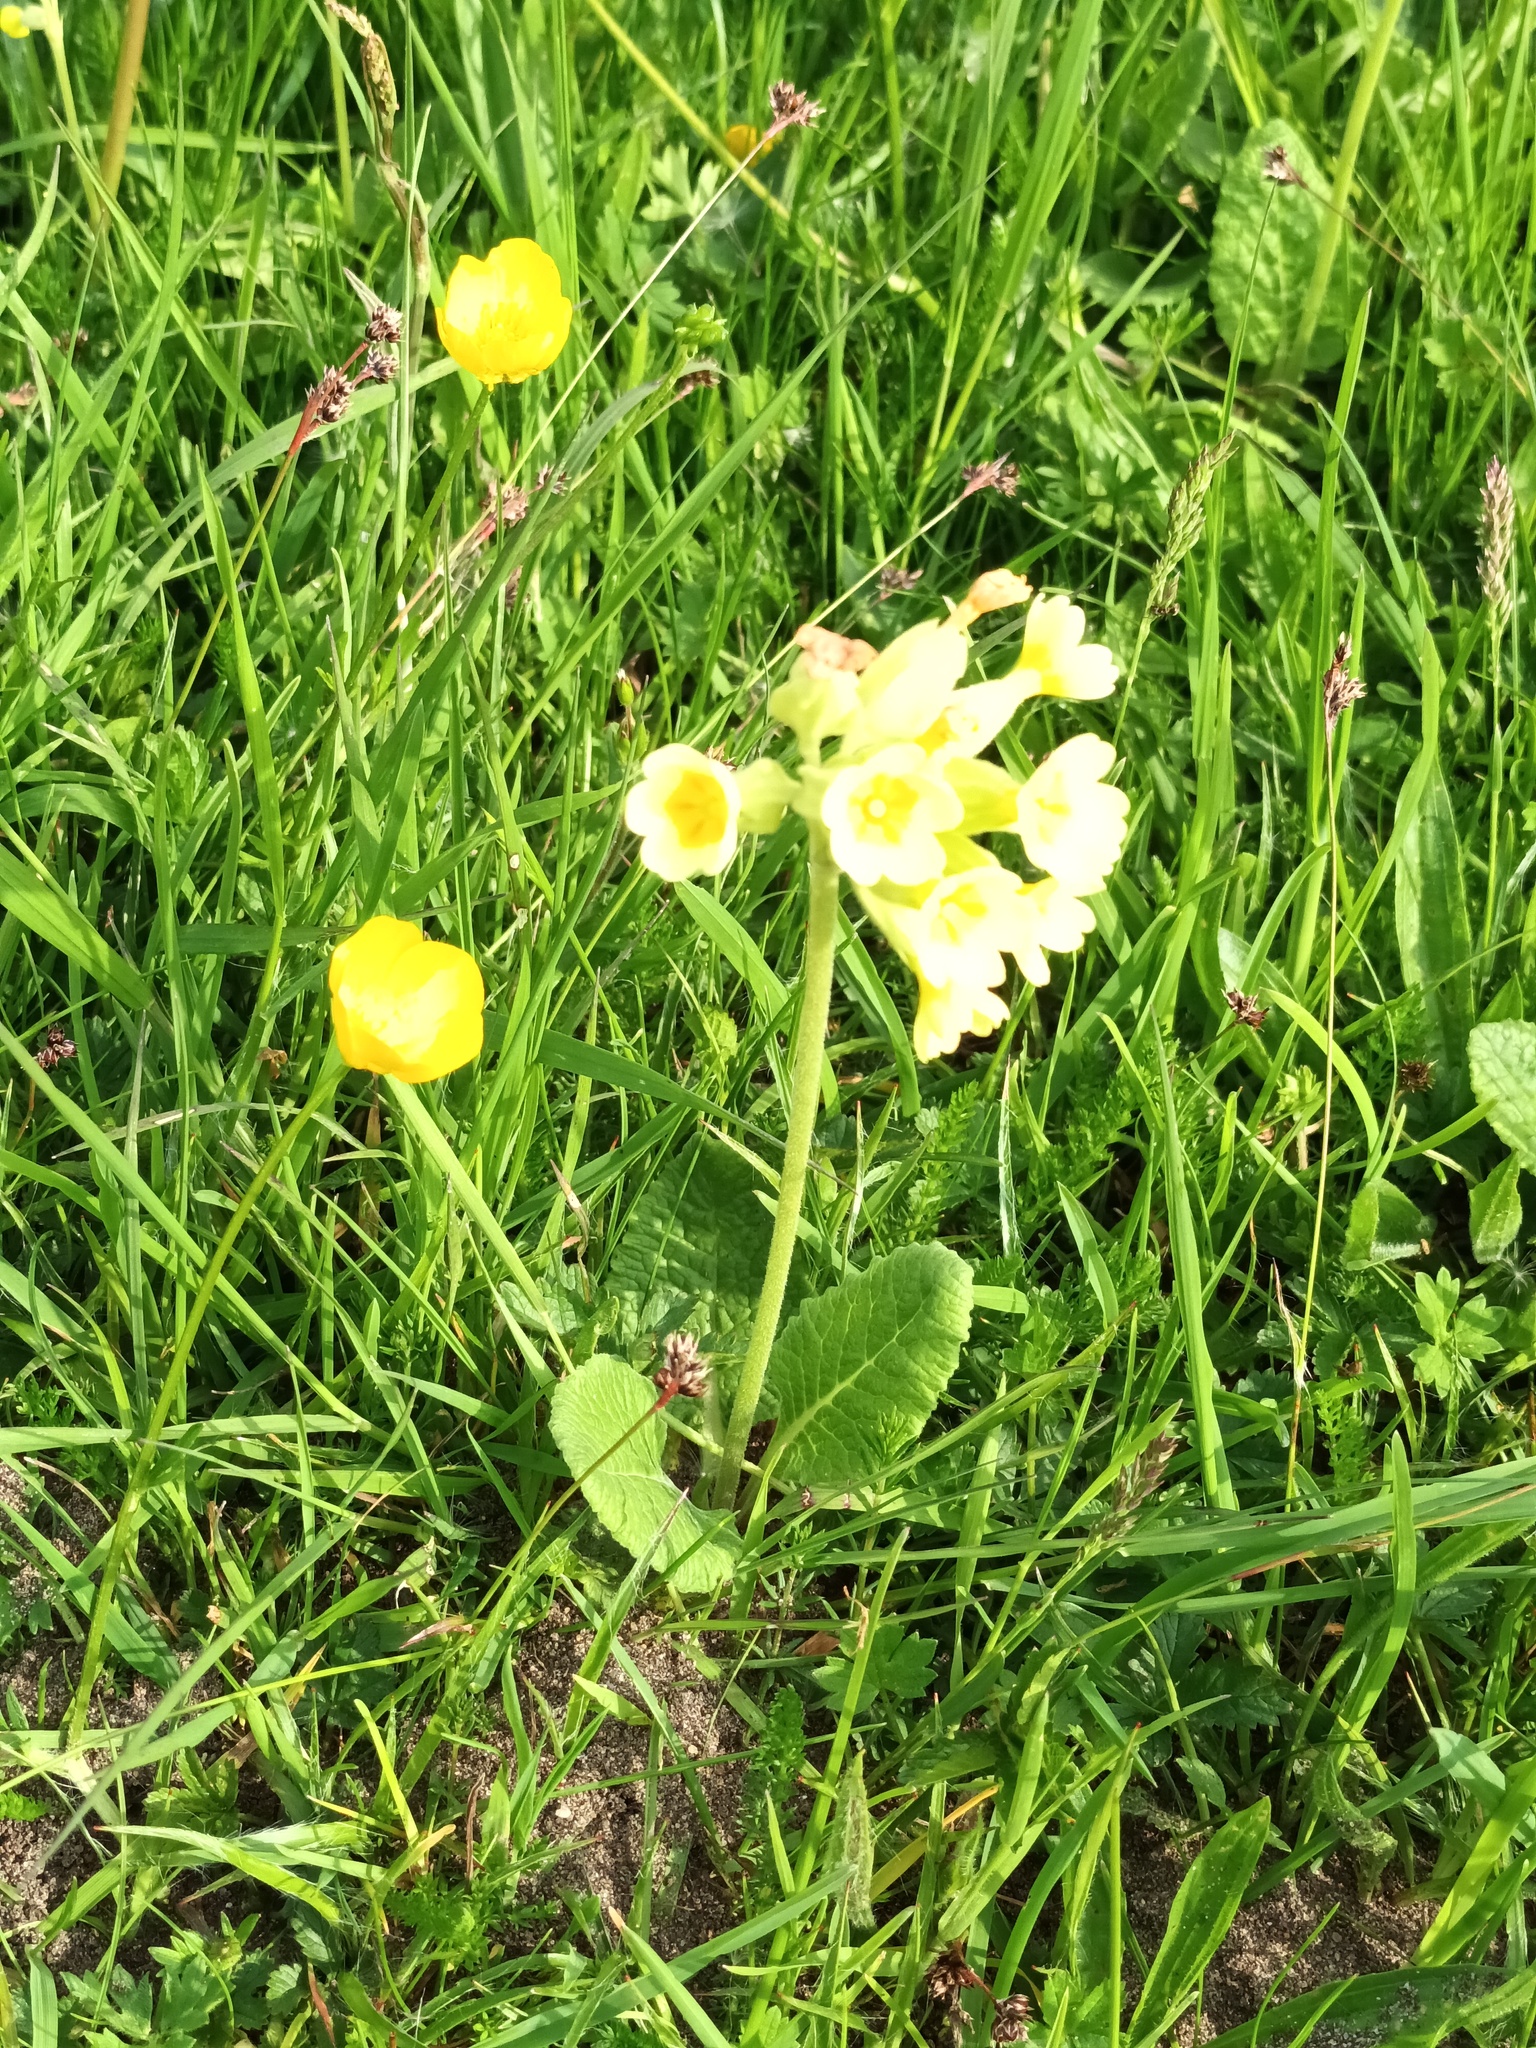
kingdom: Plantae
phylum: Tracheophyta
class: Magnoliopsida
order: Ericales
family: Primulaceae
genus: Primula
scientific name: Primula veris
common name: Cowslip
